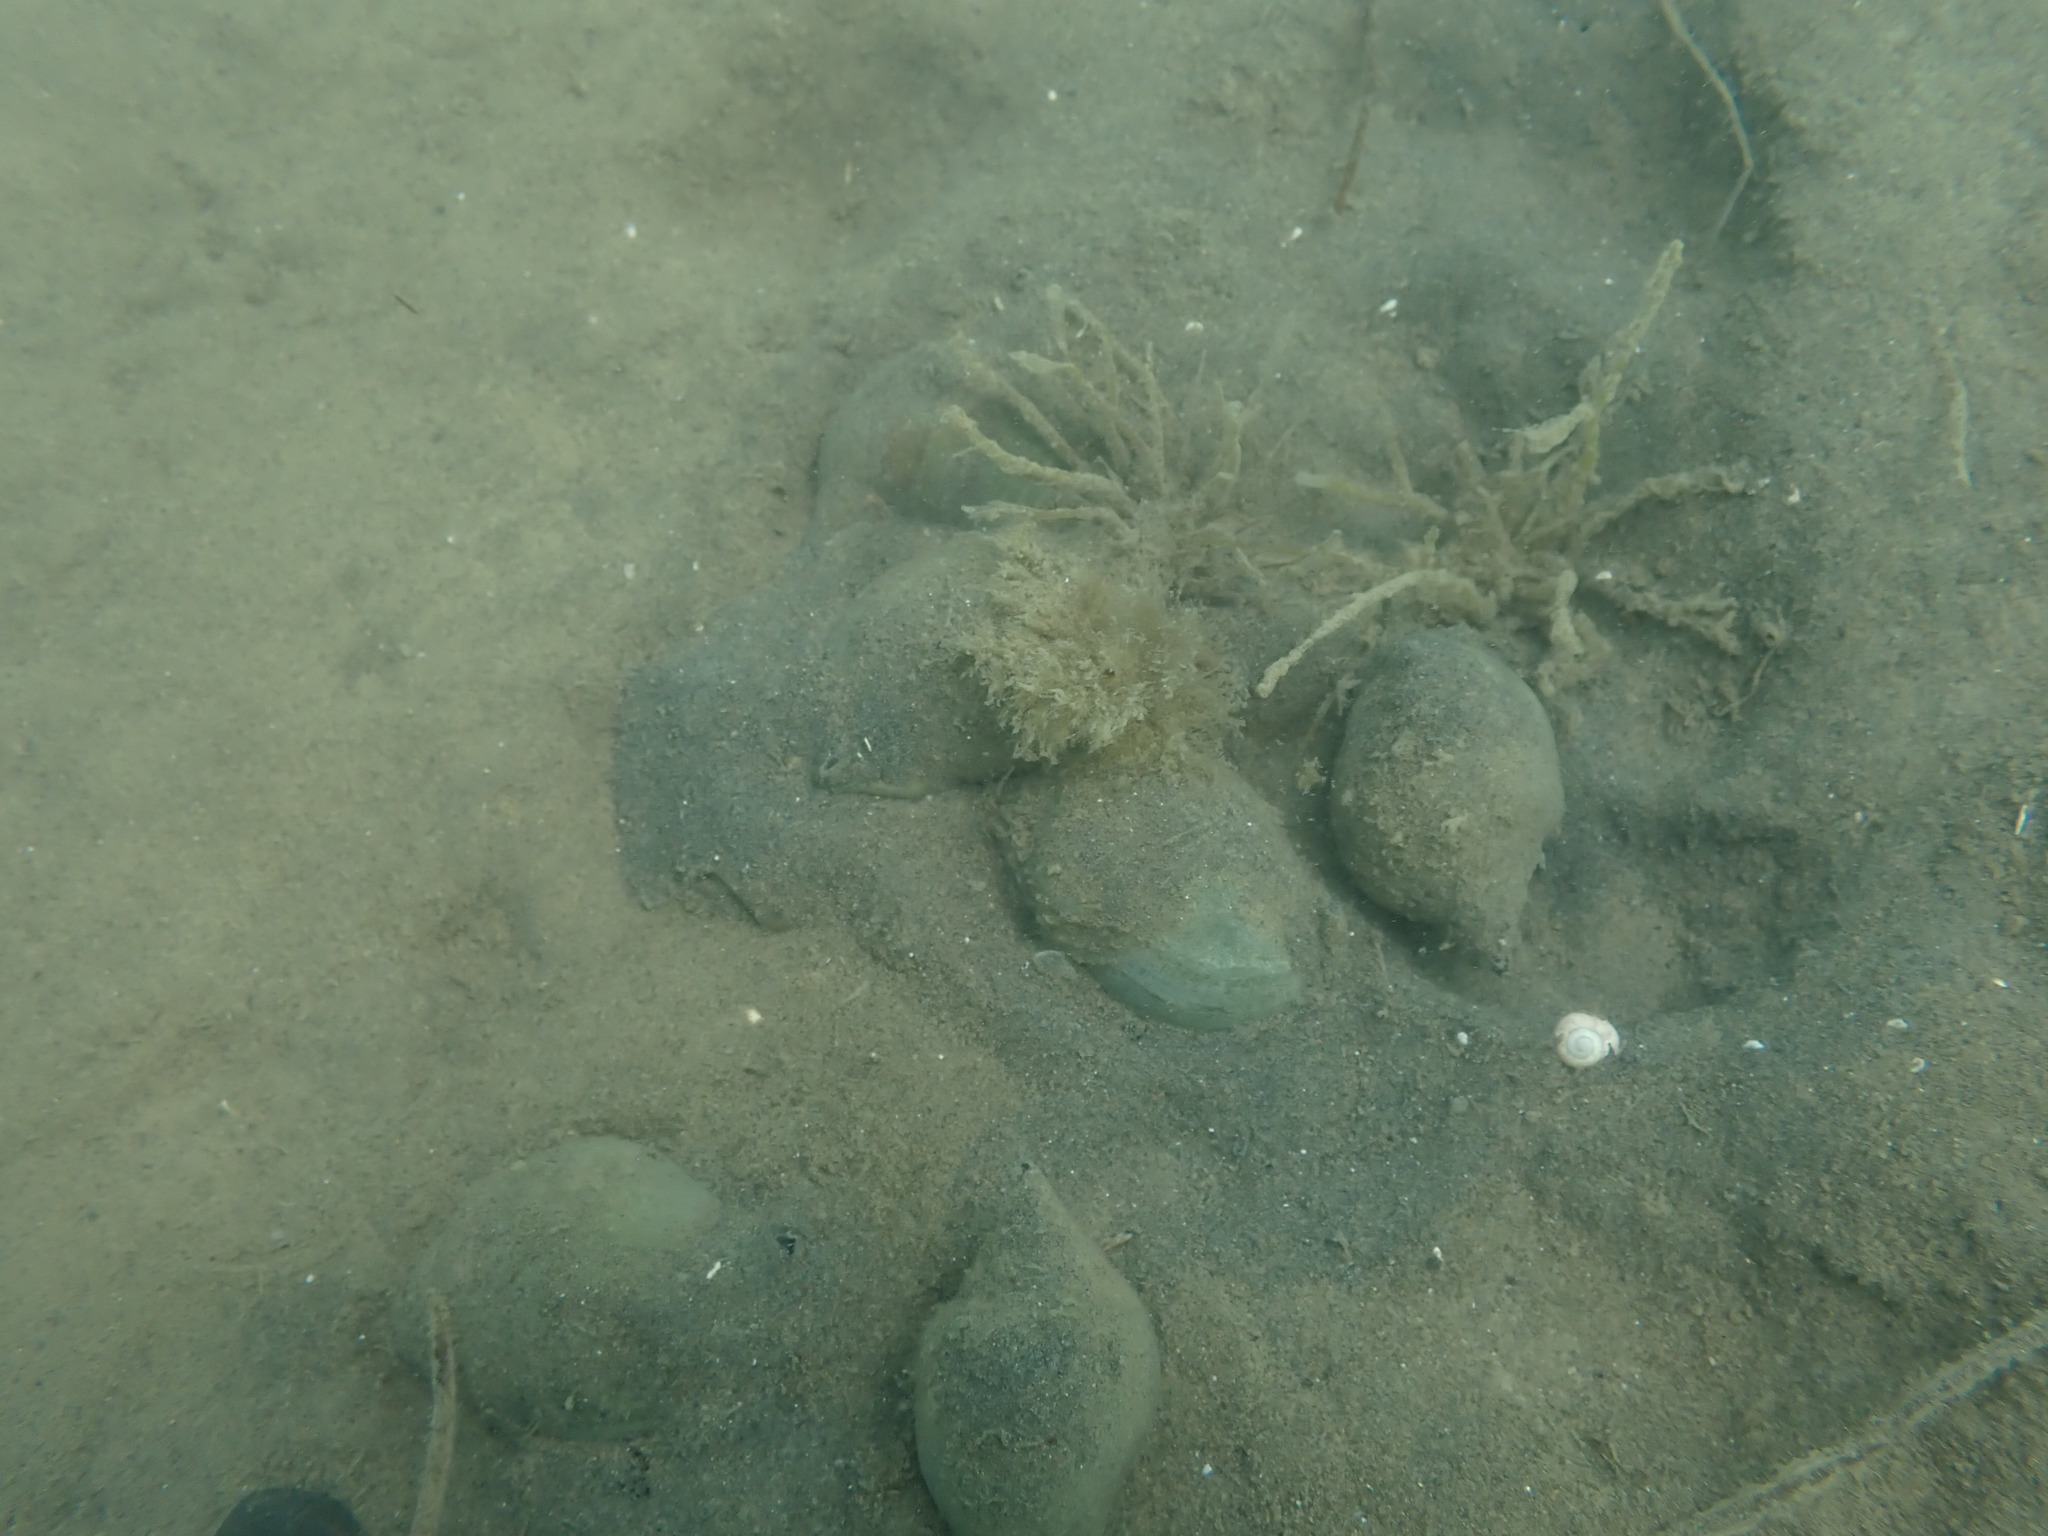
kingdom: Animalia
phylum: Mollusca
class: Gastropoda
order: Neogastropoda
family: Cominellidae
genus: Cominella
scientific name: Cominella adspersa
